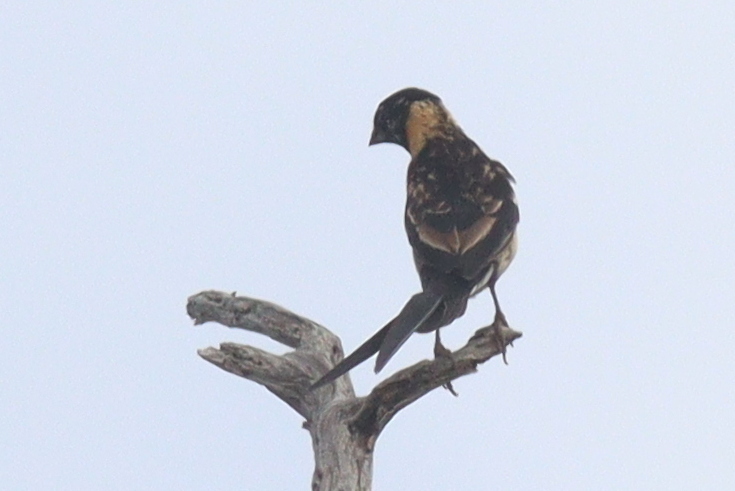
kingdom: Animalia
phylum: Chordata
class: Aves
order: Passeriformes
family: Viduidae
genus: Vidua
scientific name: Vidua paradisaea
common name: Long-tailed paradise whydah
